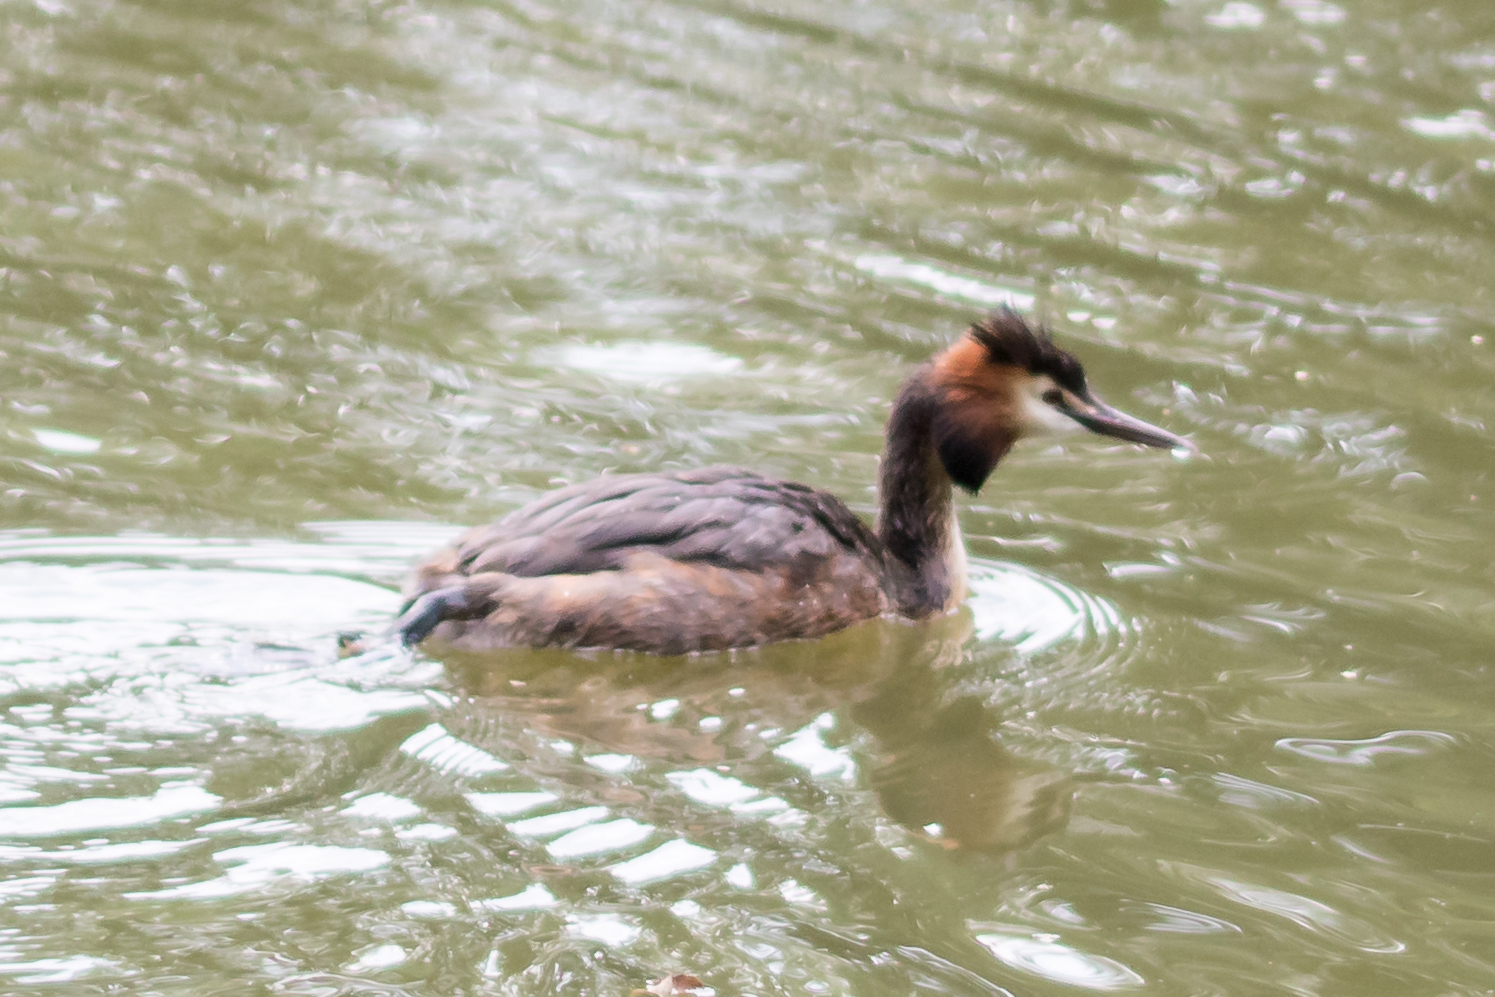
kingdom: Animalia
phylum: Chordata
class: Aves
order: Podicipediformes
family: Podicipedidae
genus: Podiceps
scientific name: Podiceps cristatus
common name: Great crested grebe
